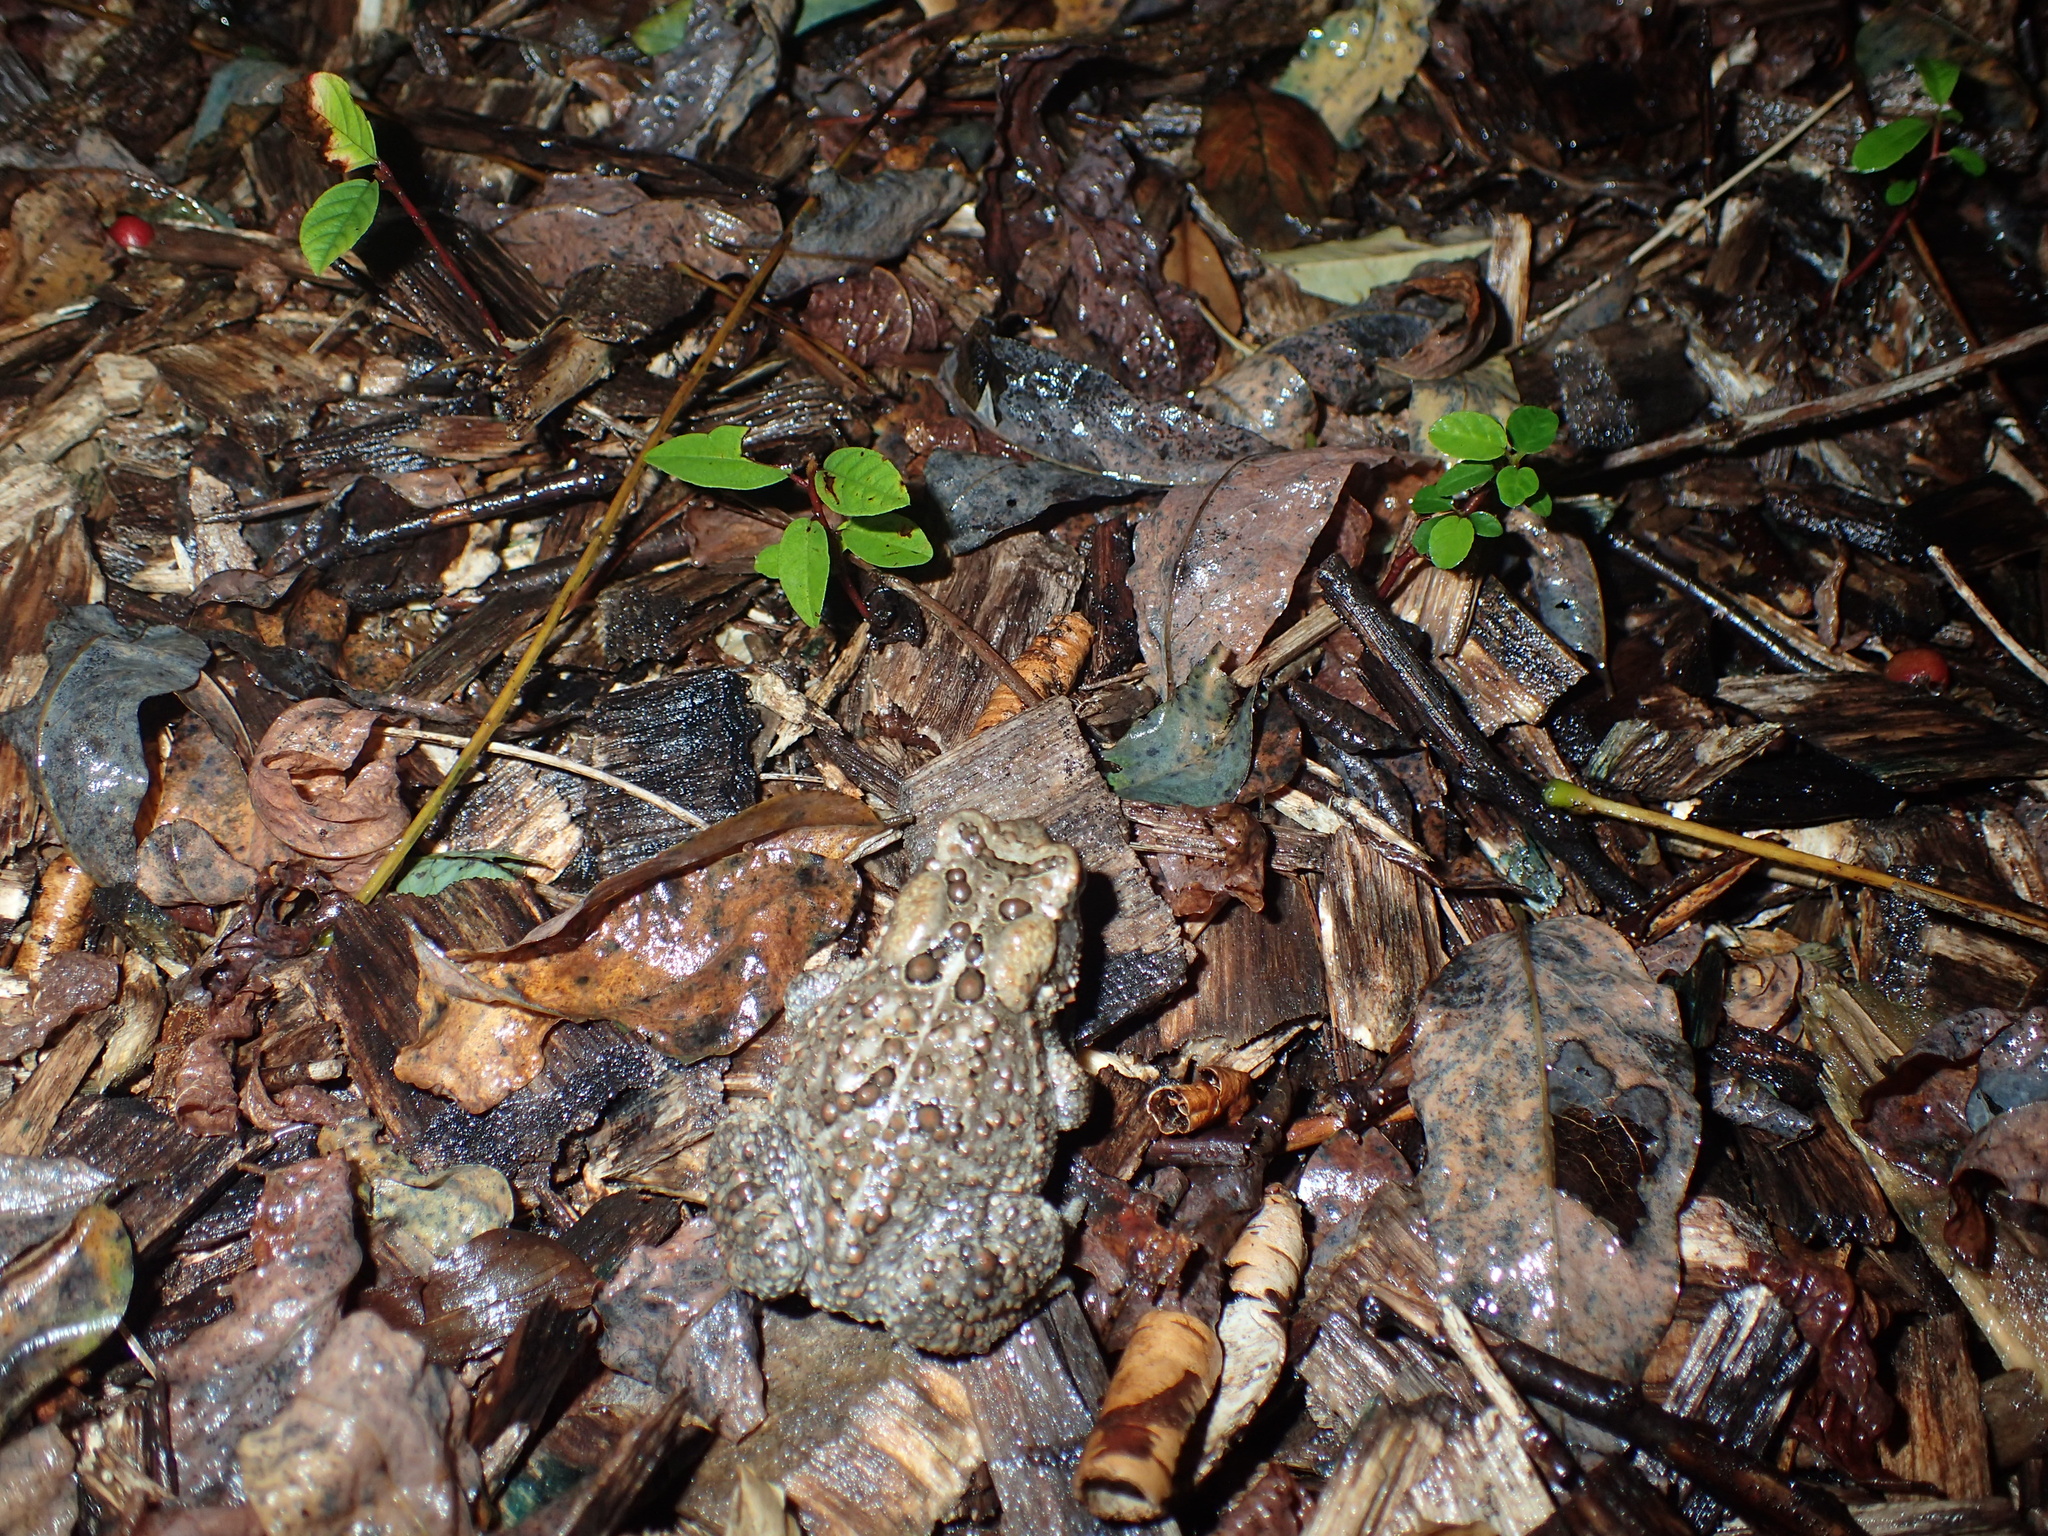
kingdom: Animalia
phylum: Chordata
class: Amphibia
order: Anura
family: Bufonidae
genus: Anaxyrus
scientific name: Anaxyrus americanus
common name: American toad
